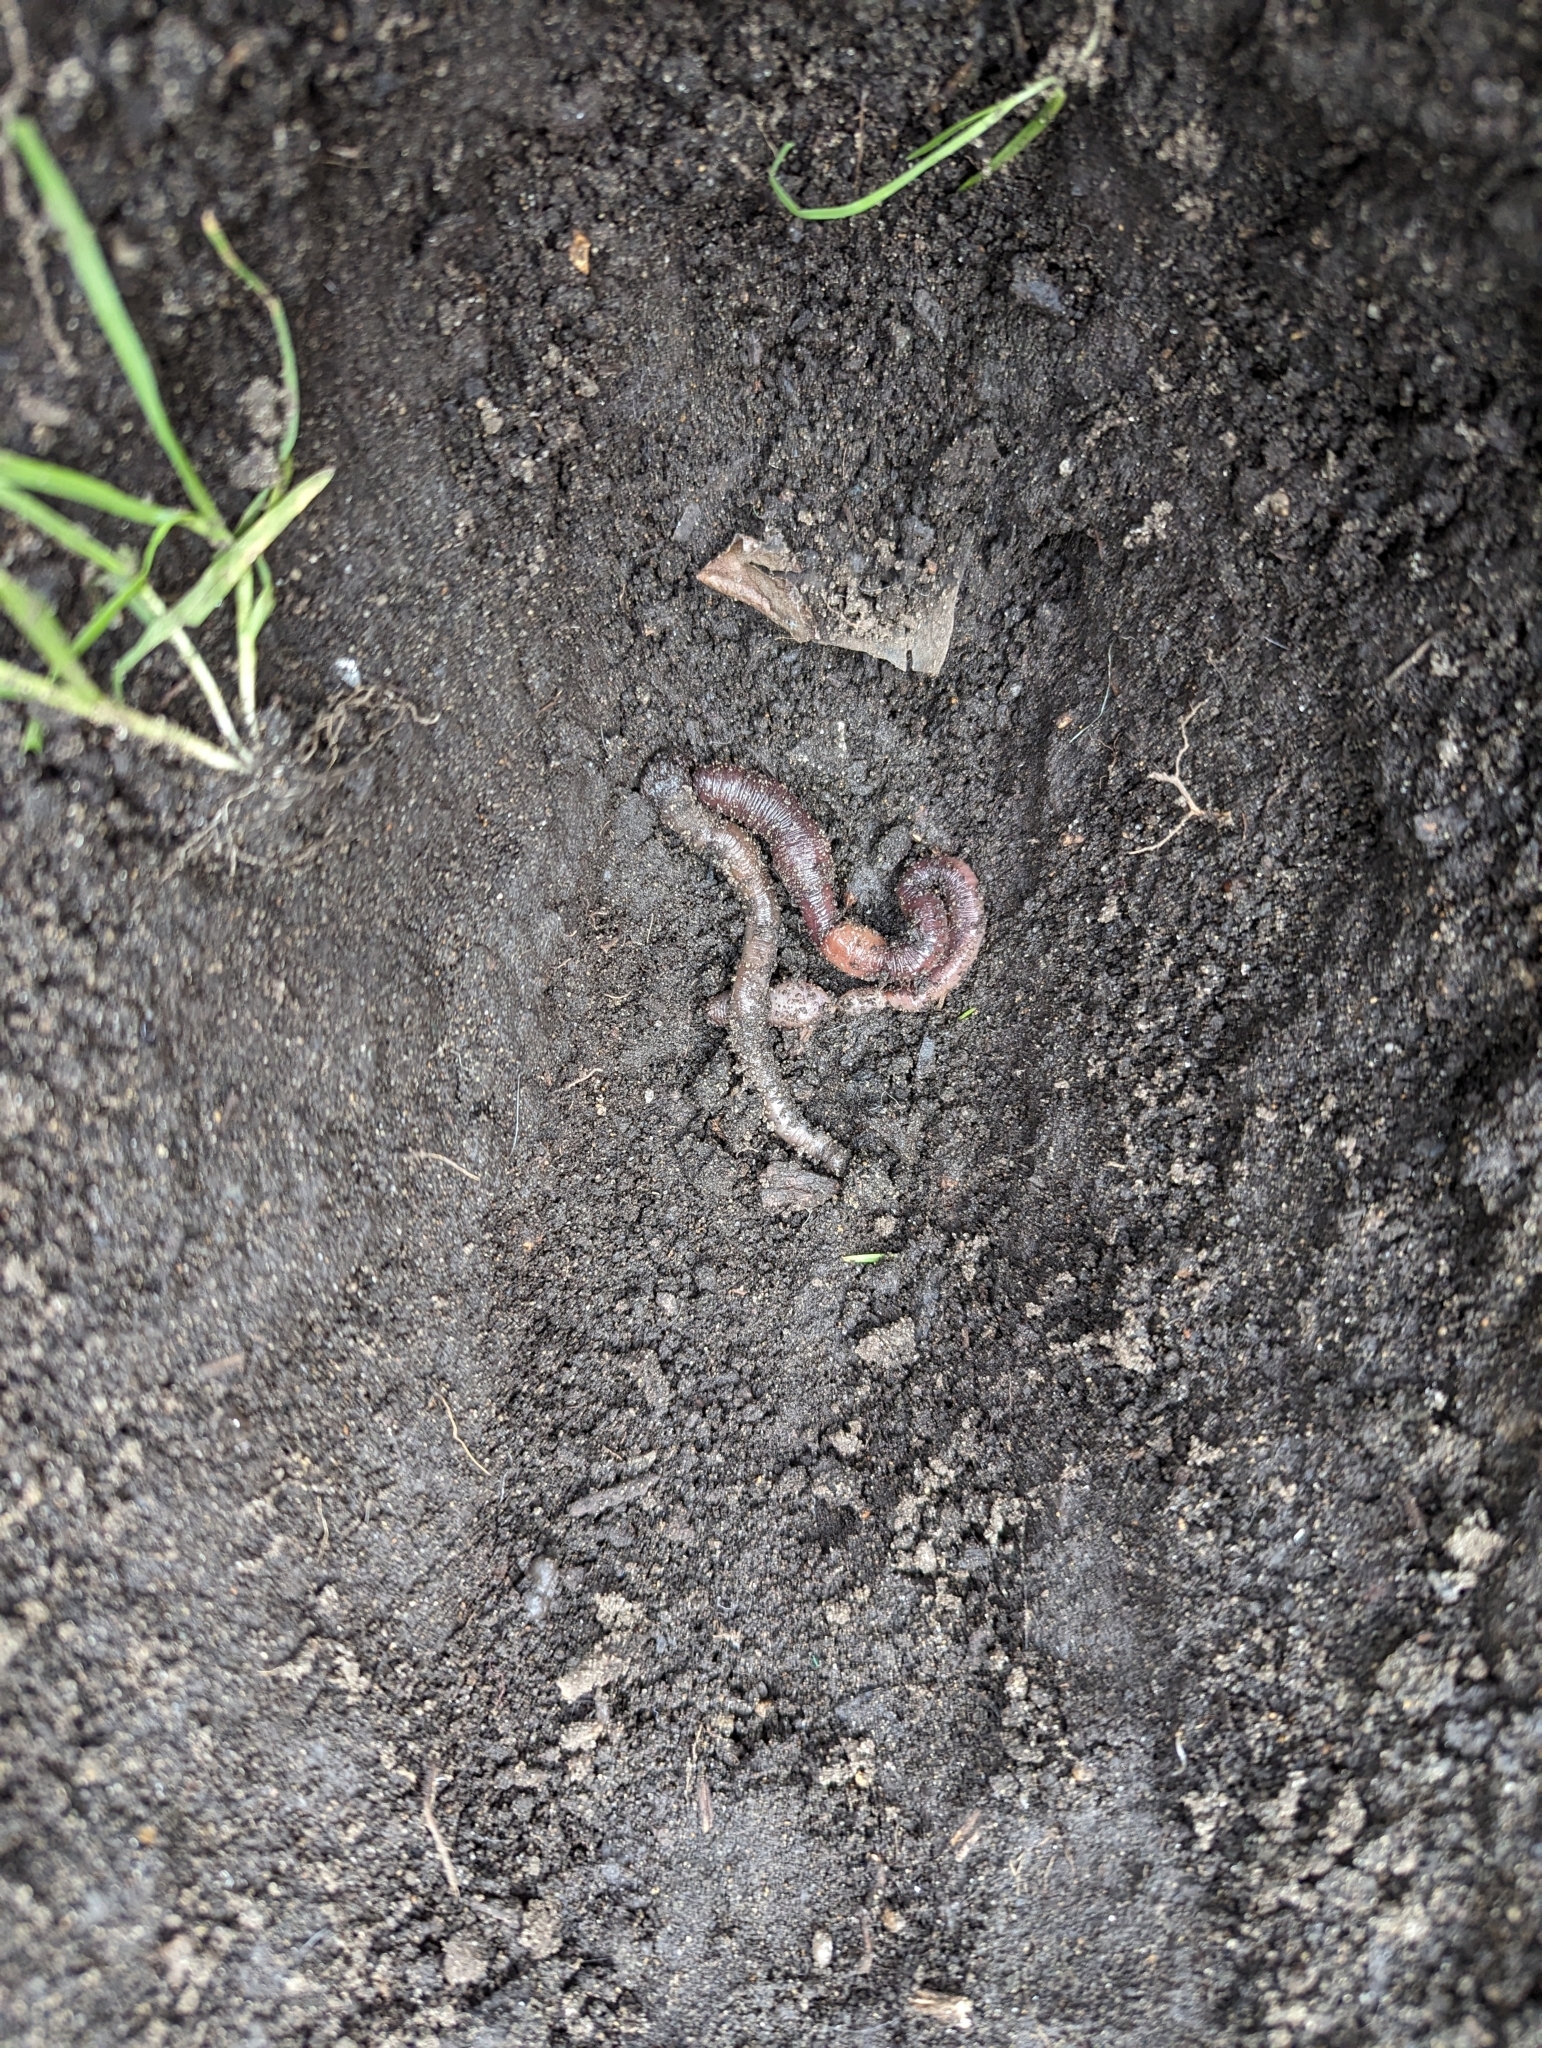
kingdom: Animalia
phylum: Annelida
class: Clitellata
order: Crassiclitellata
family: Lumbricidae
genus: Lumbricus
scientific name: Lumbricus terrestris
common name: Common earthworm
